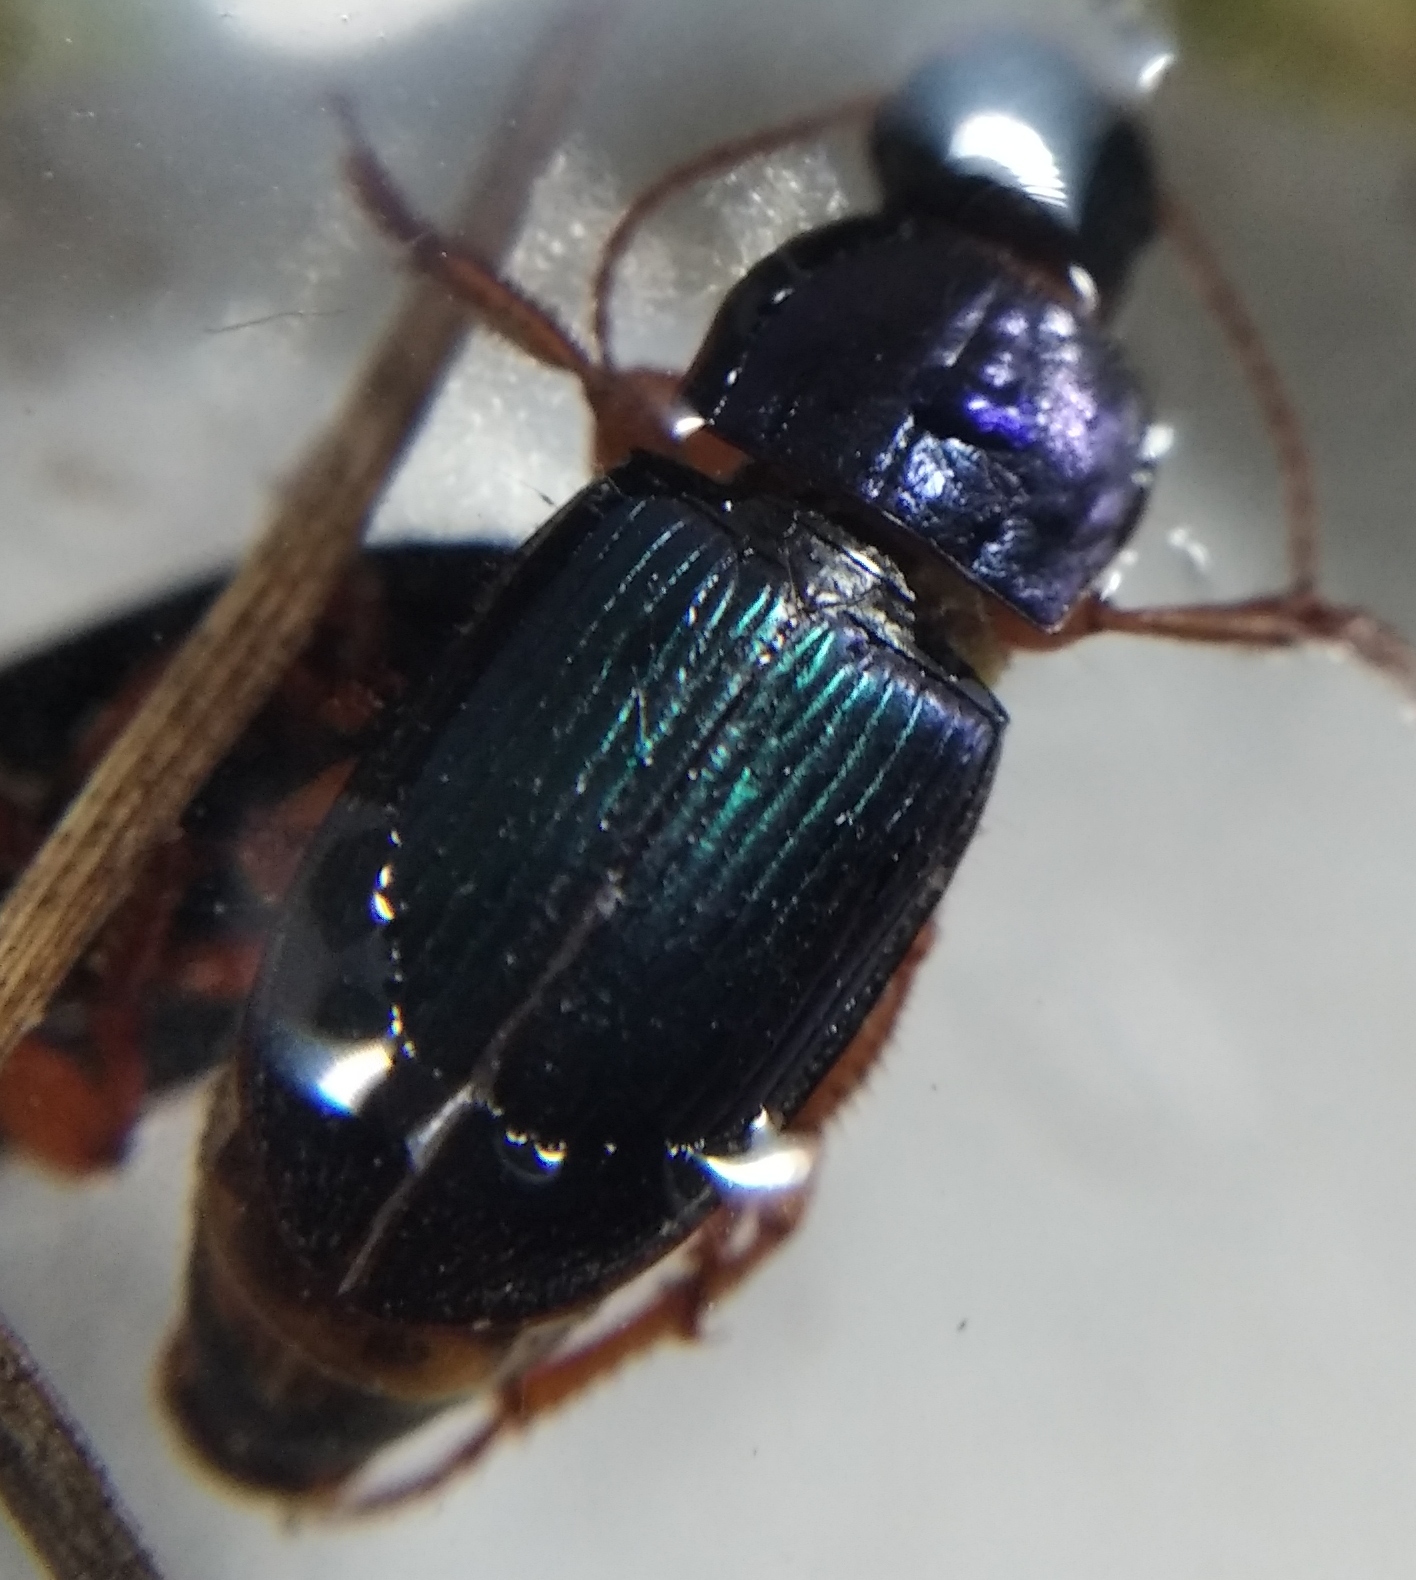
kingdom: Animalia
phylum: Arthropoda
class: Insecta
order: Coleoptera
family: Carabidae
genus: Ophonus
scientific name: Ophonus azureus
